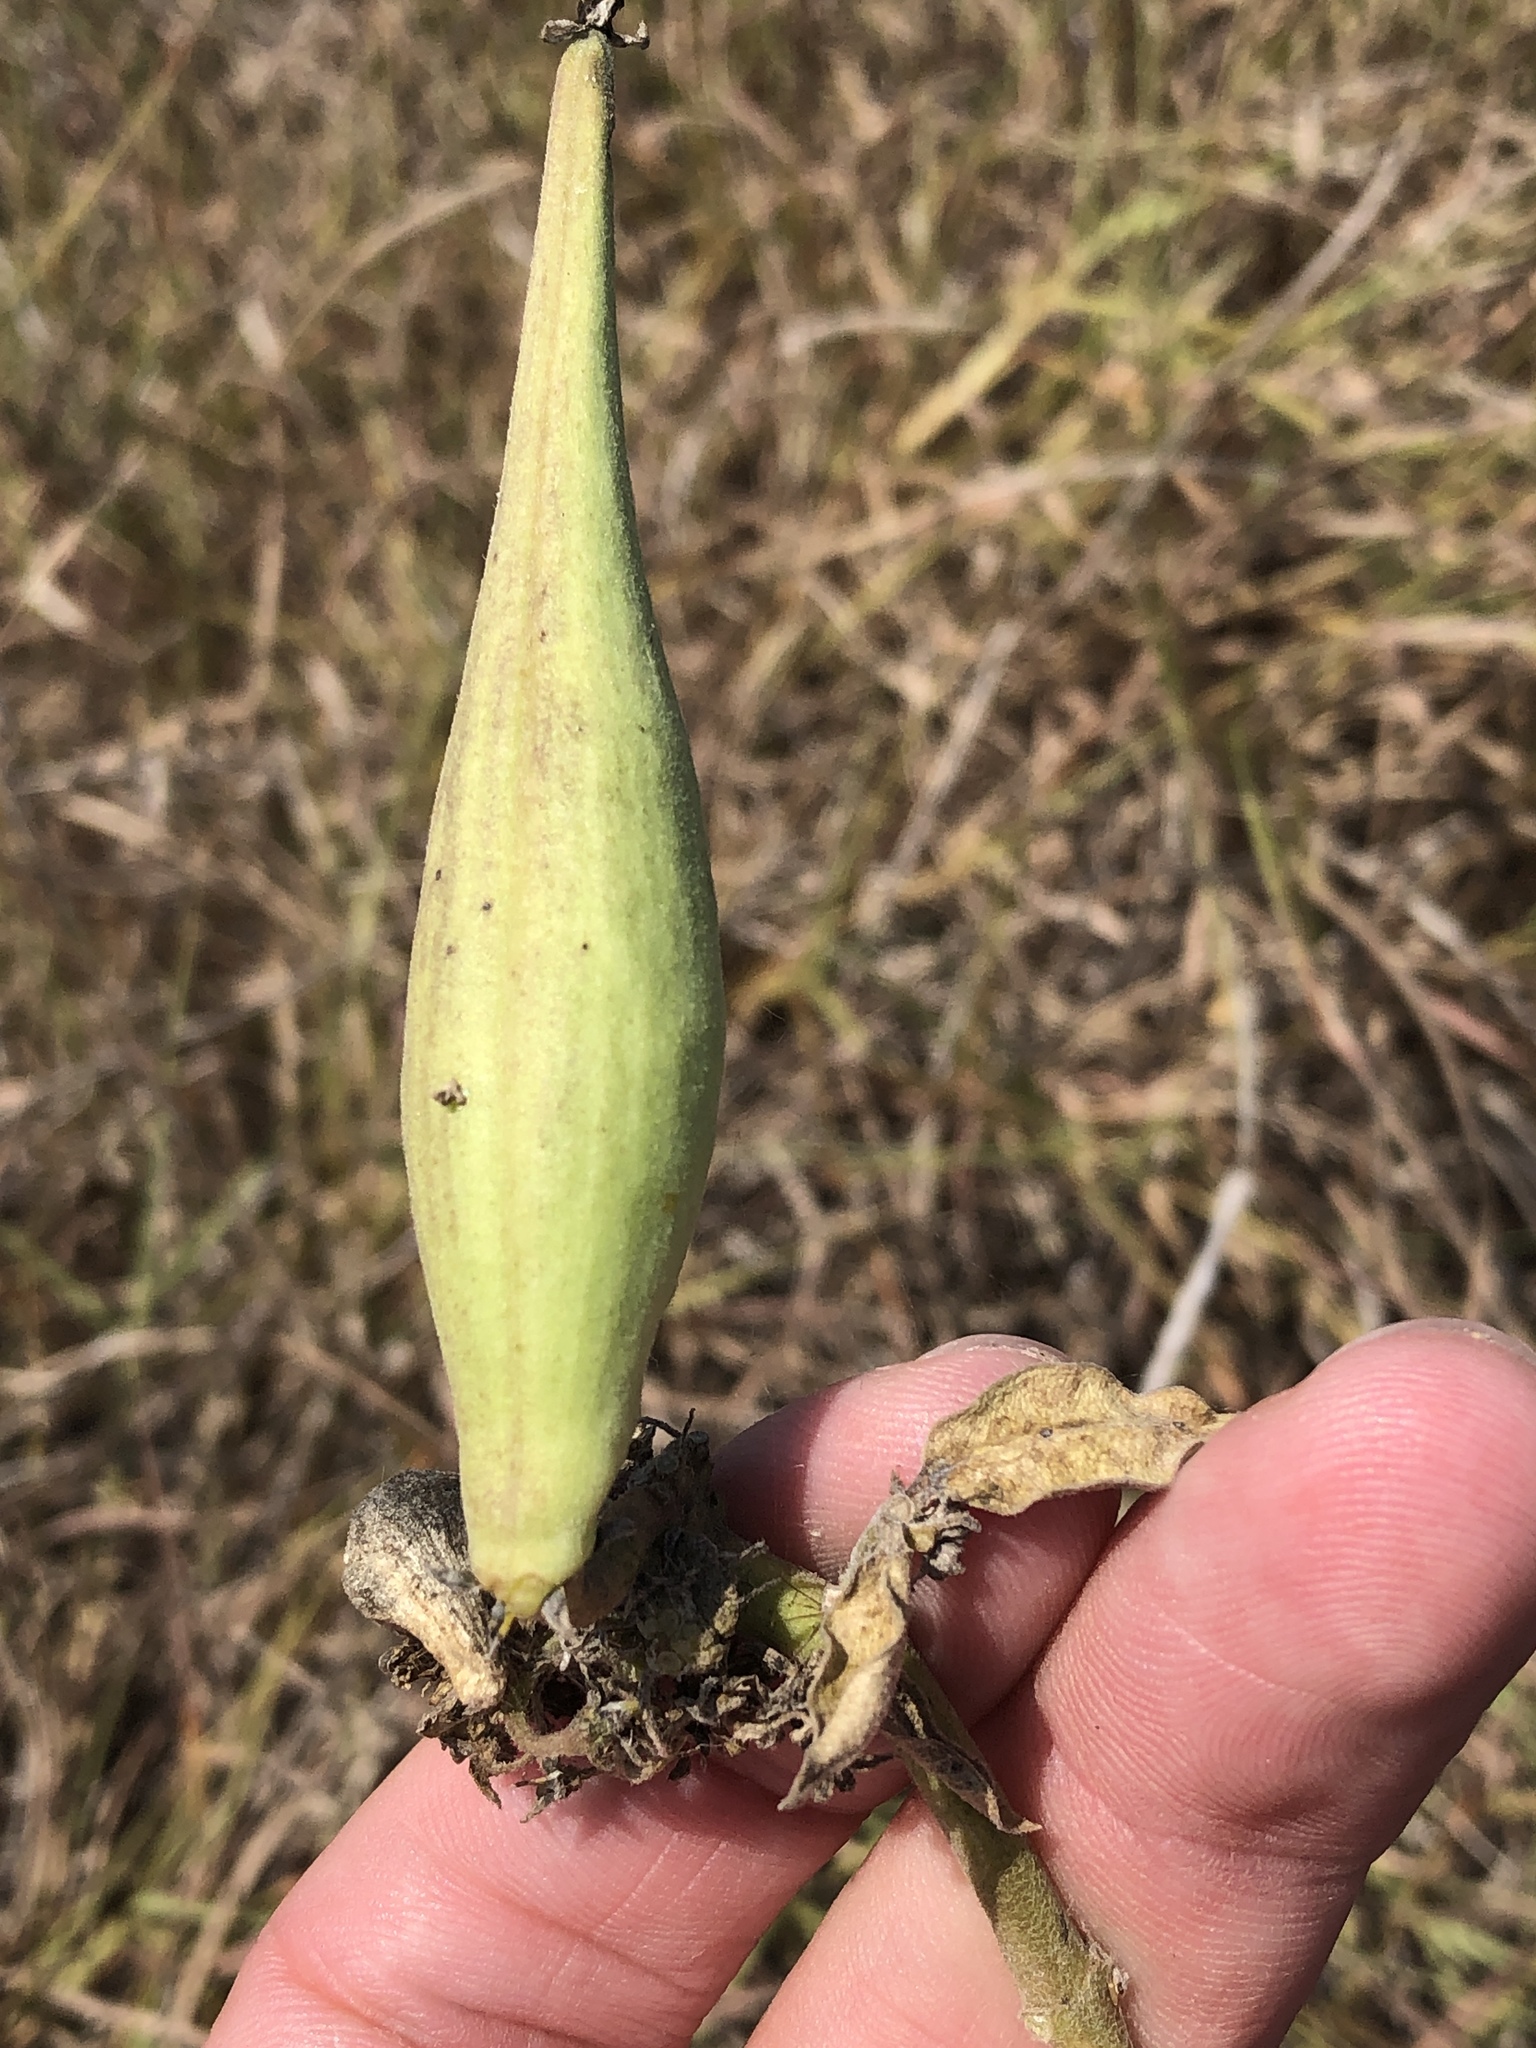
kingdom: Plantae
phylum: Tracheophyta
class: Magnoliopsida
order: Gentianales
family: Apocynaceae
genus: Asclepias
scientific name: Asclepias viridiflora
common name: Green comet milkweed
